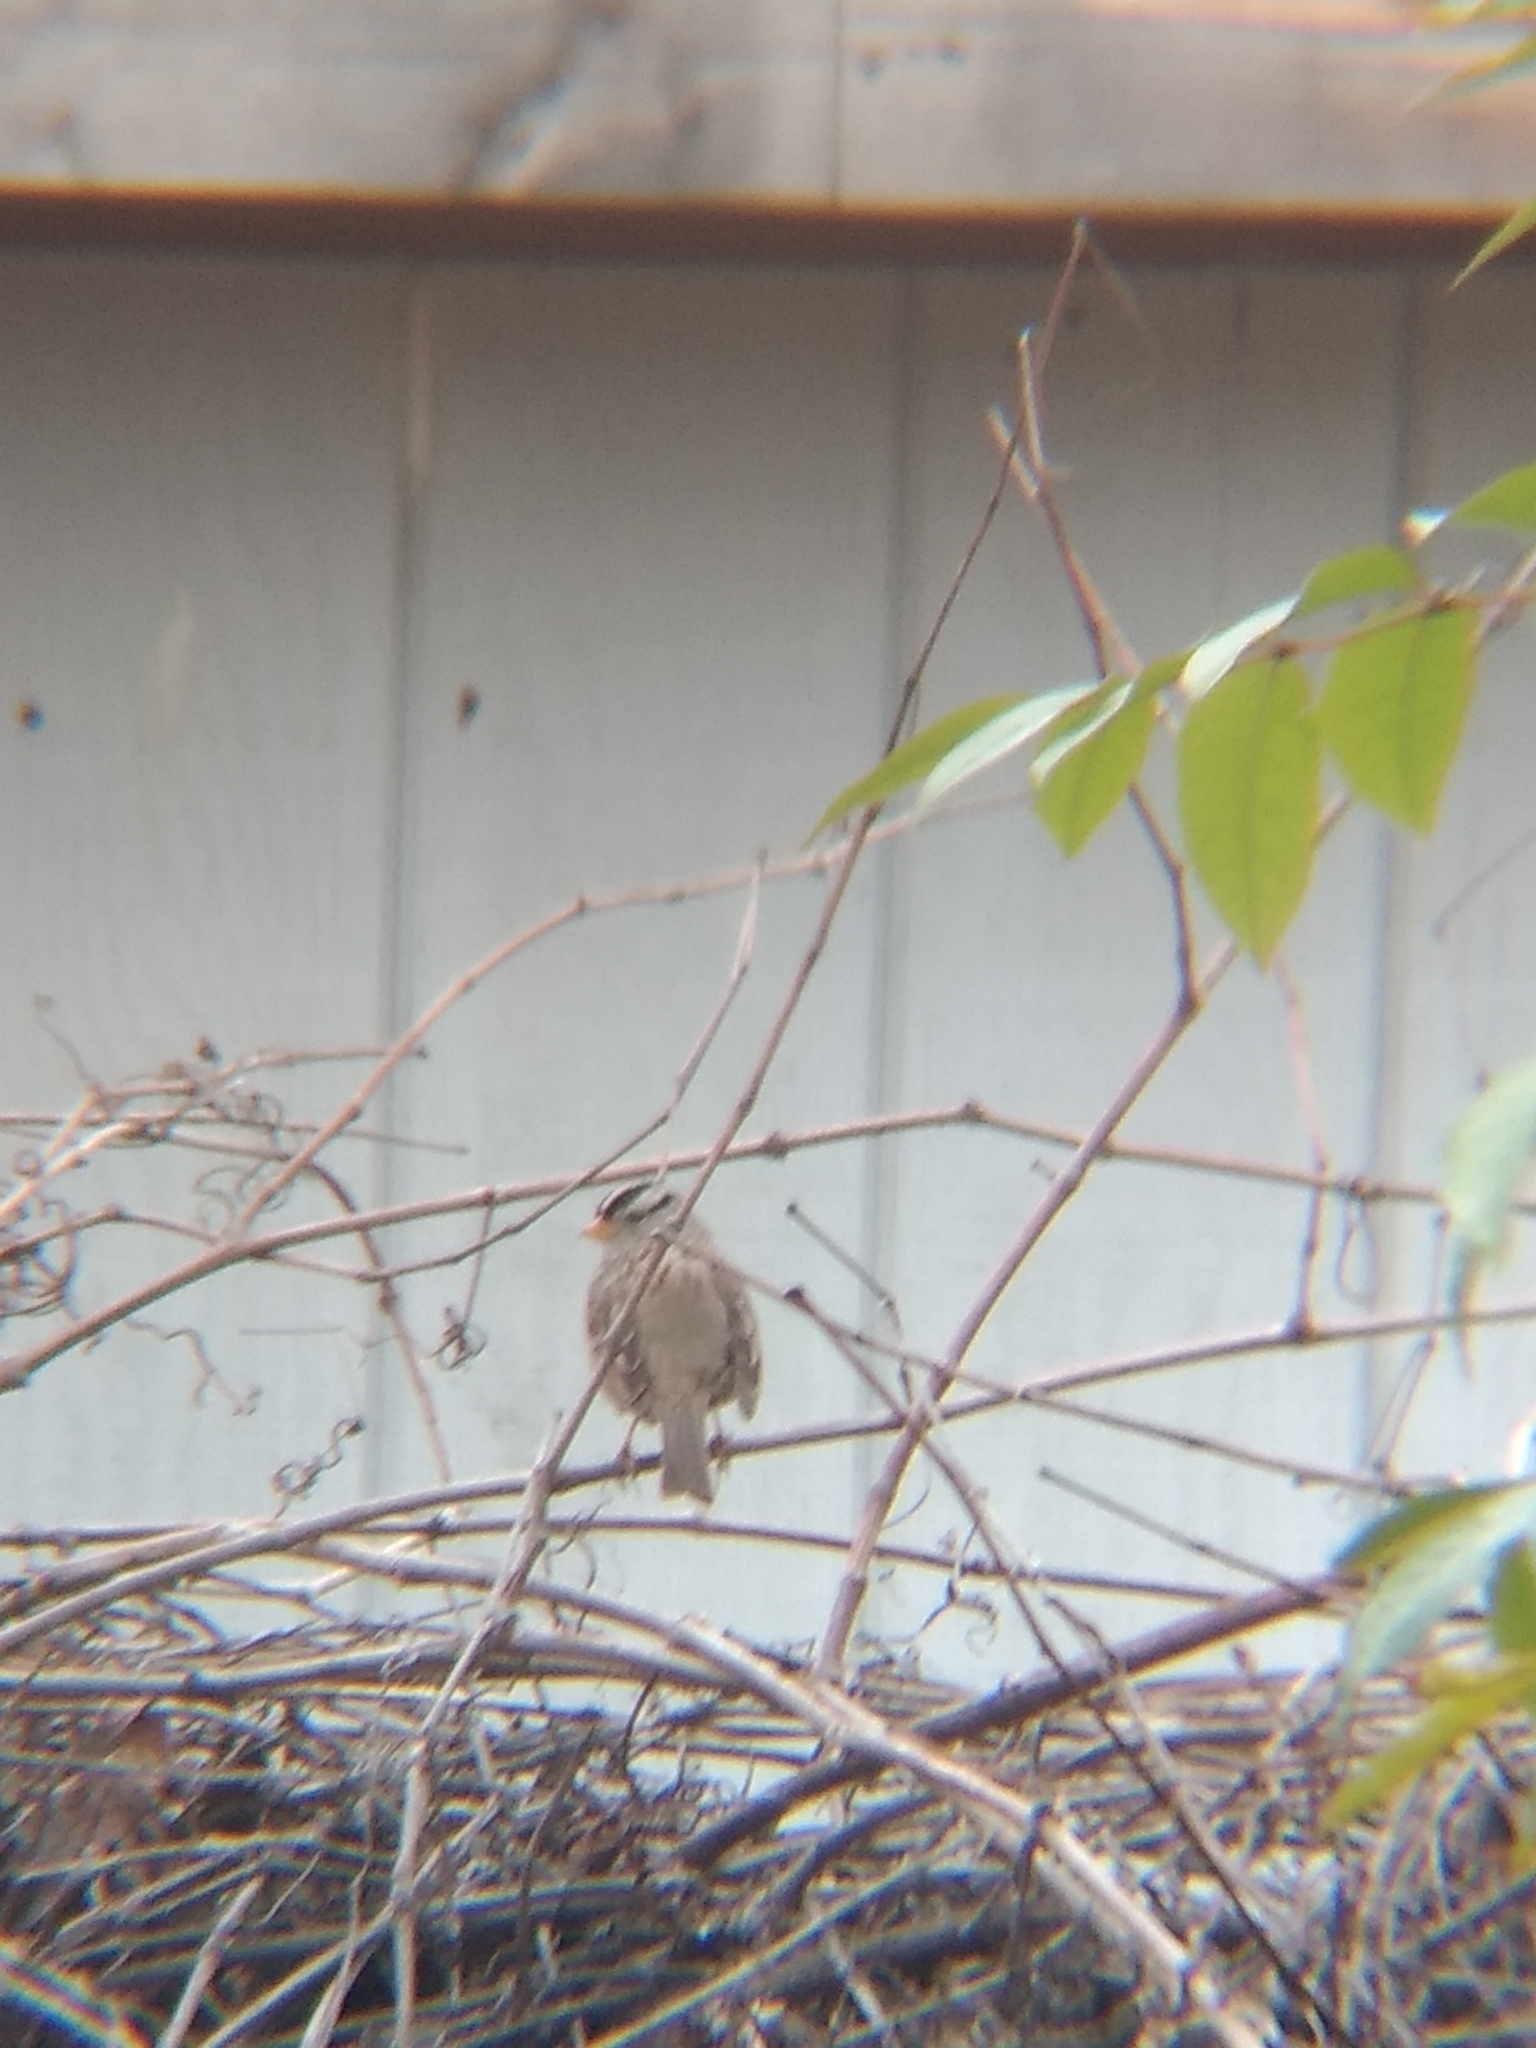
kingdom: Animalia
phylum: Chordata
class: Aves
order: Passeriformes
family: Passerellidae
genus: Zonotrichia
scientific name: Zonotrichia leucophrys
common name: White-crowned sparrow
